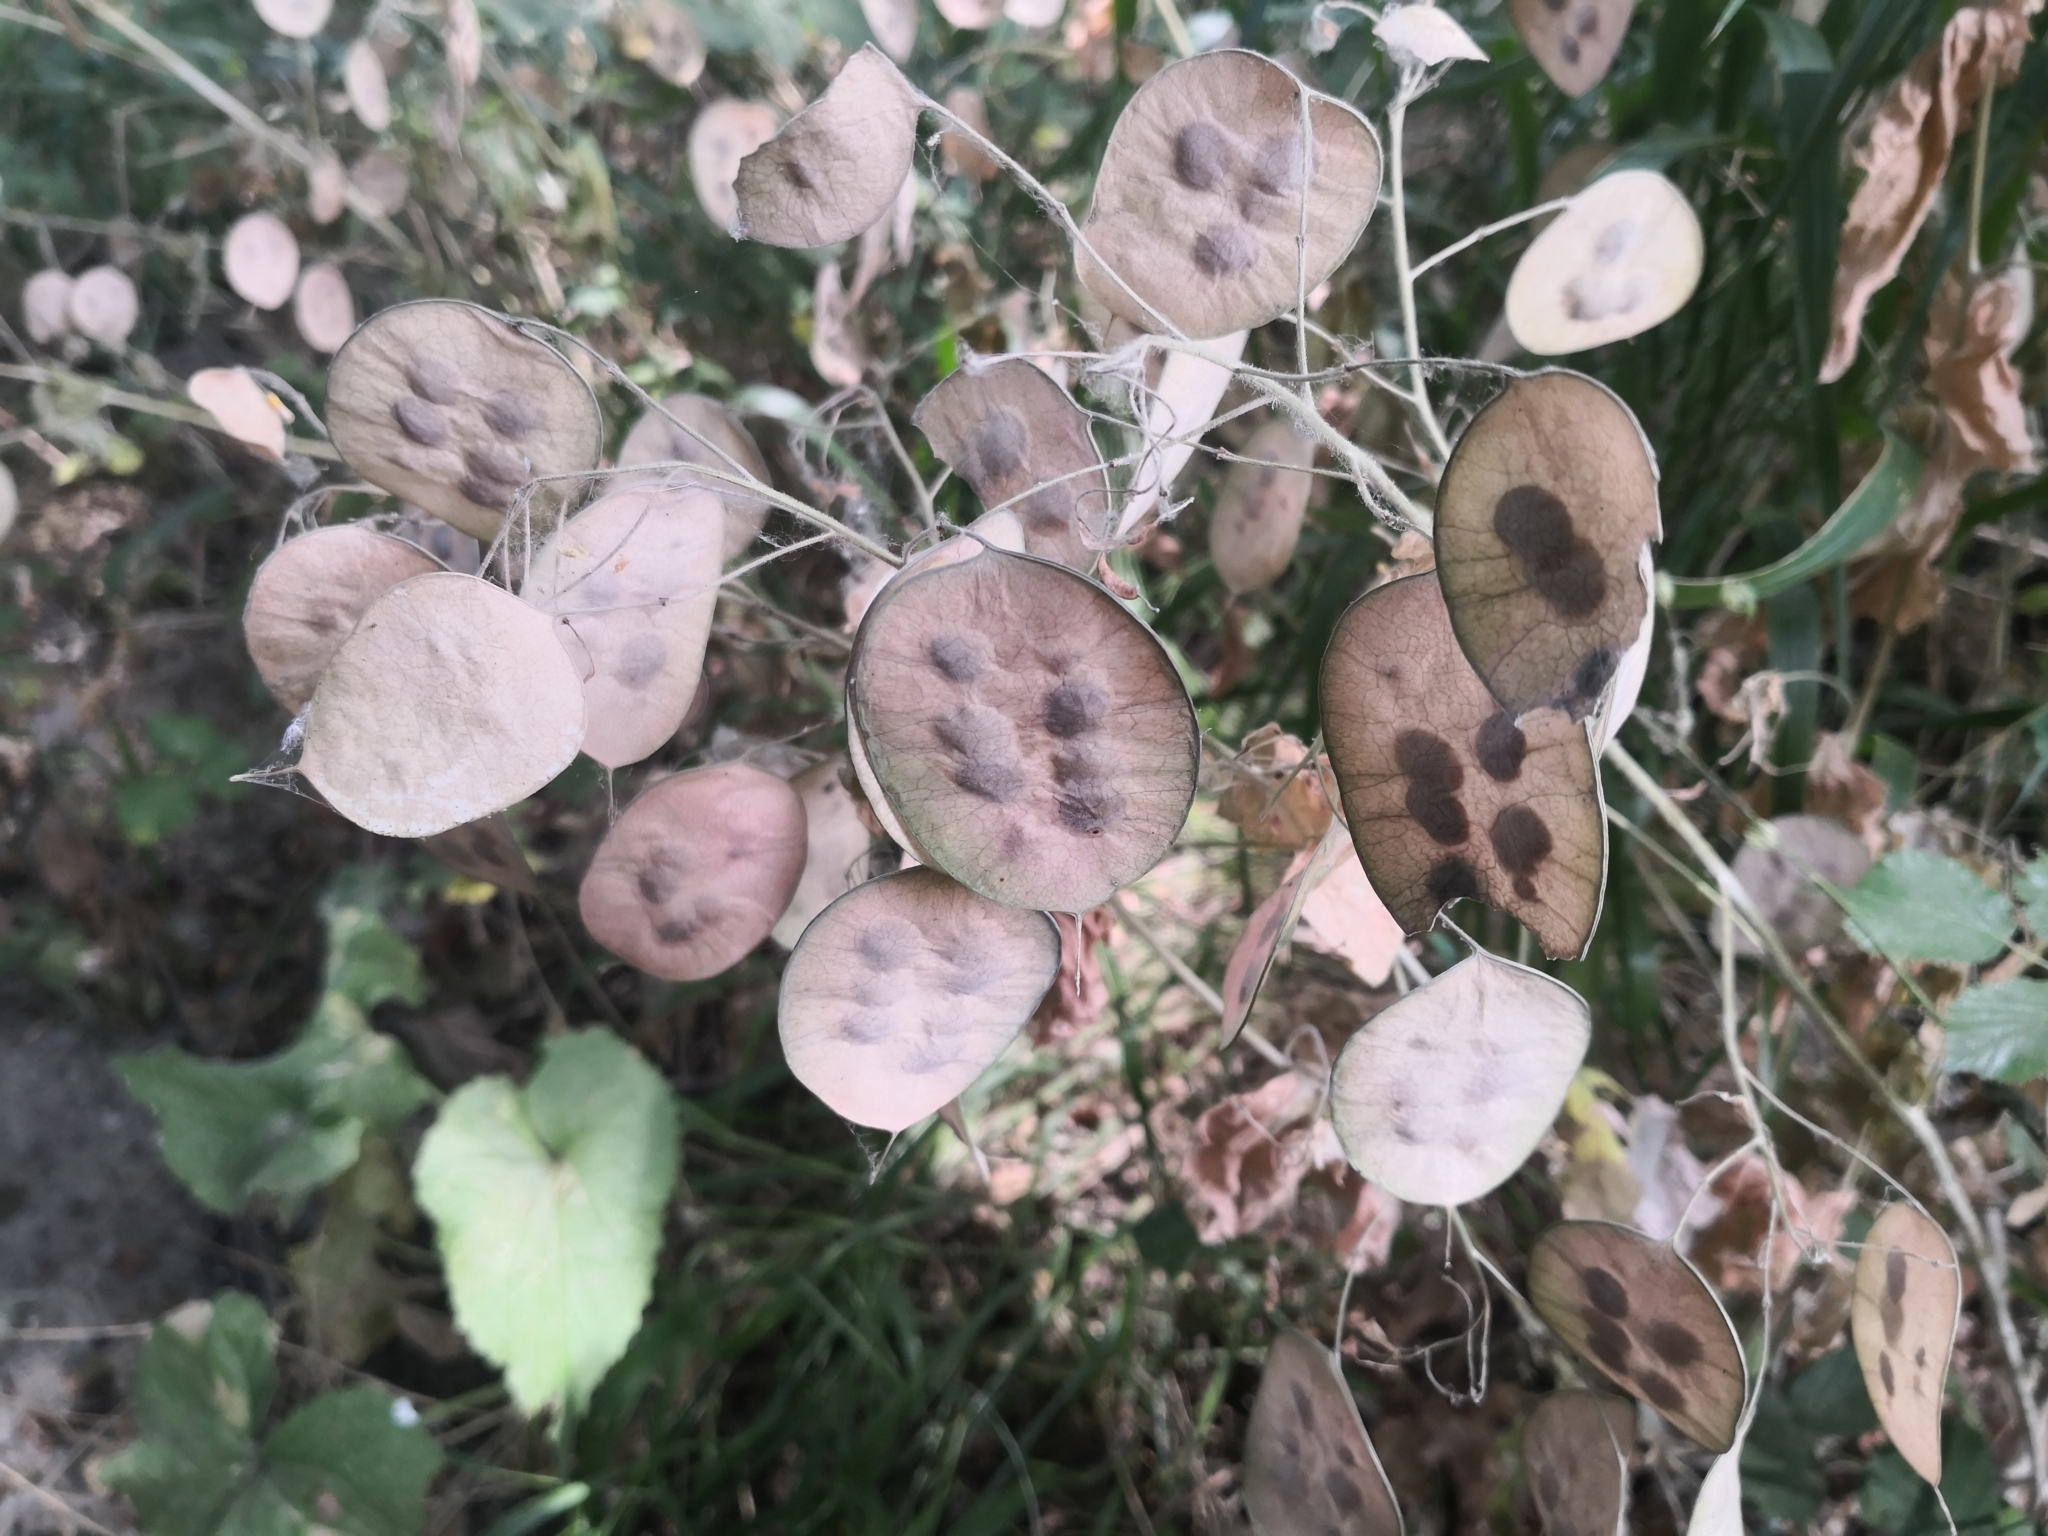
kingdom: Plantae
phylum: Tracheophyta
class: Magnoliopsida
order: Brassicales
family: Brassicaceae
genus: Lunaria
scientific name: Lunaria annua
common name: Honesty
